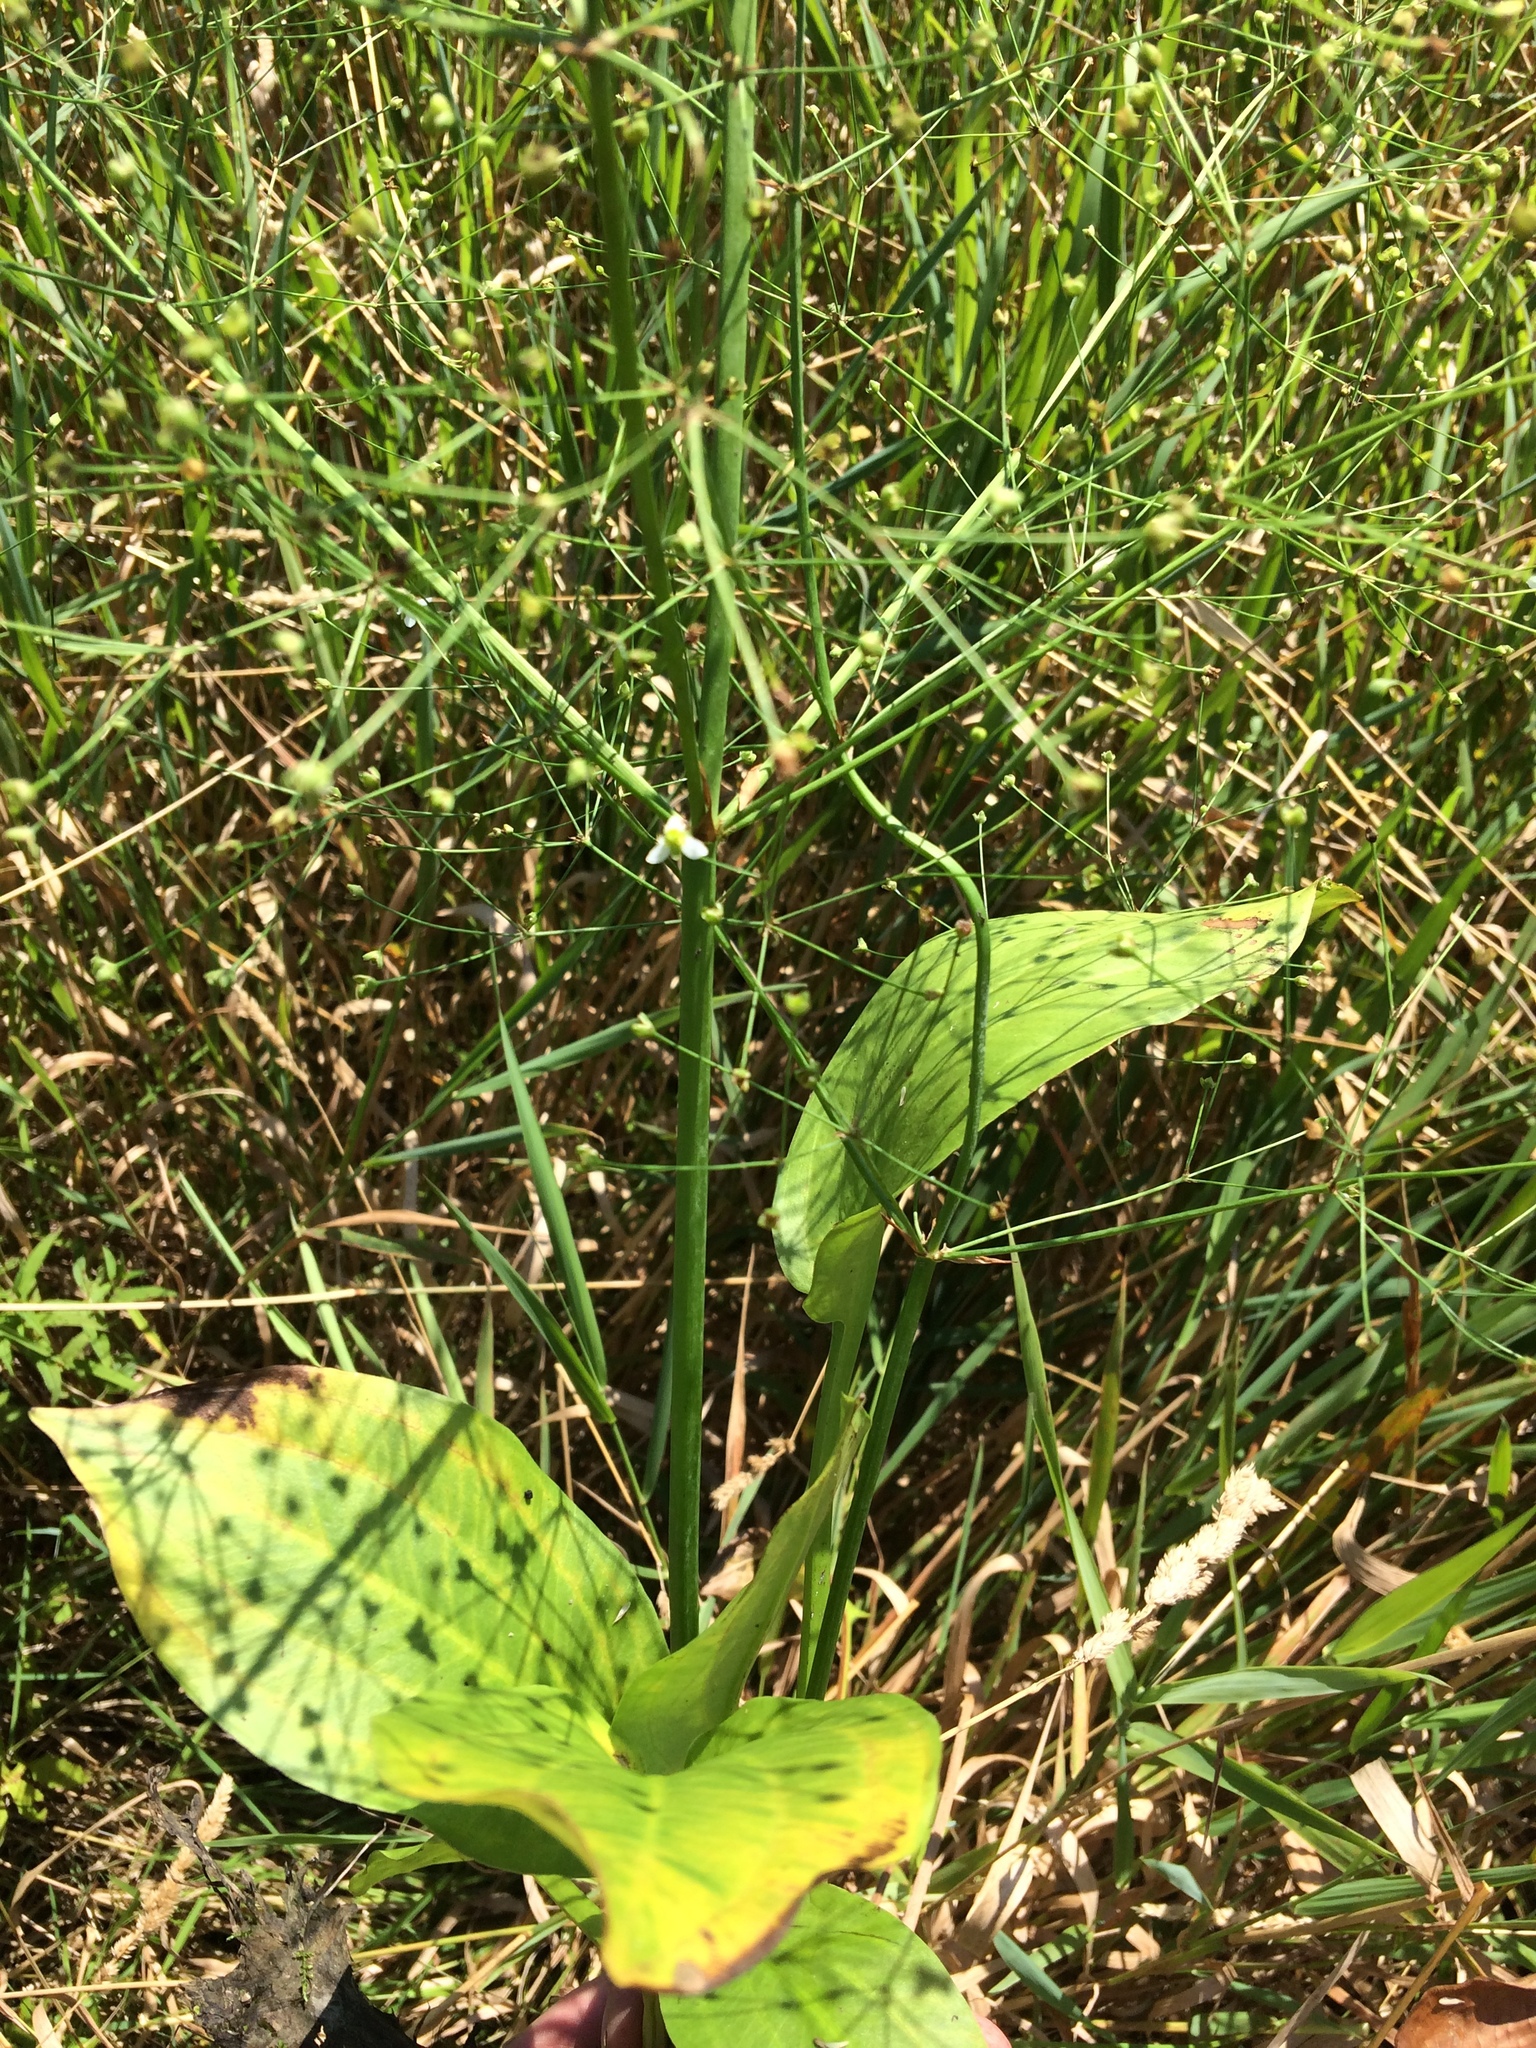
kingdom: Plantae
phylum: Tracheophyta
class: Liliopsida
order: Alismatales
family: Alismataceae
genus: Alisma
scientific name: Alisma triviale
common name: Northern water-plantain
